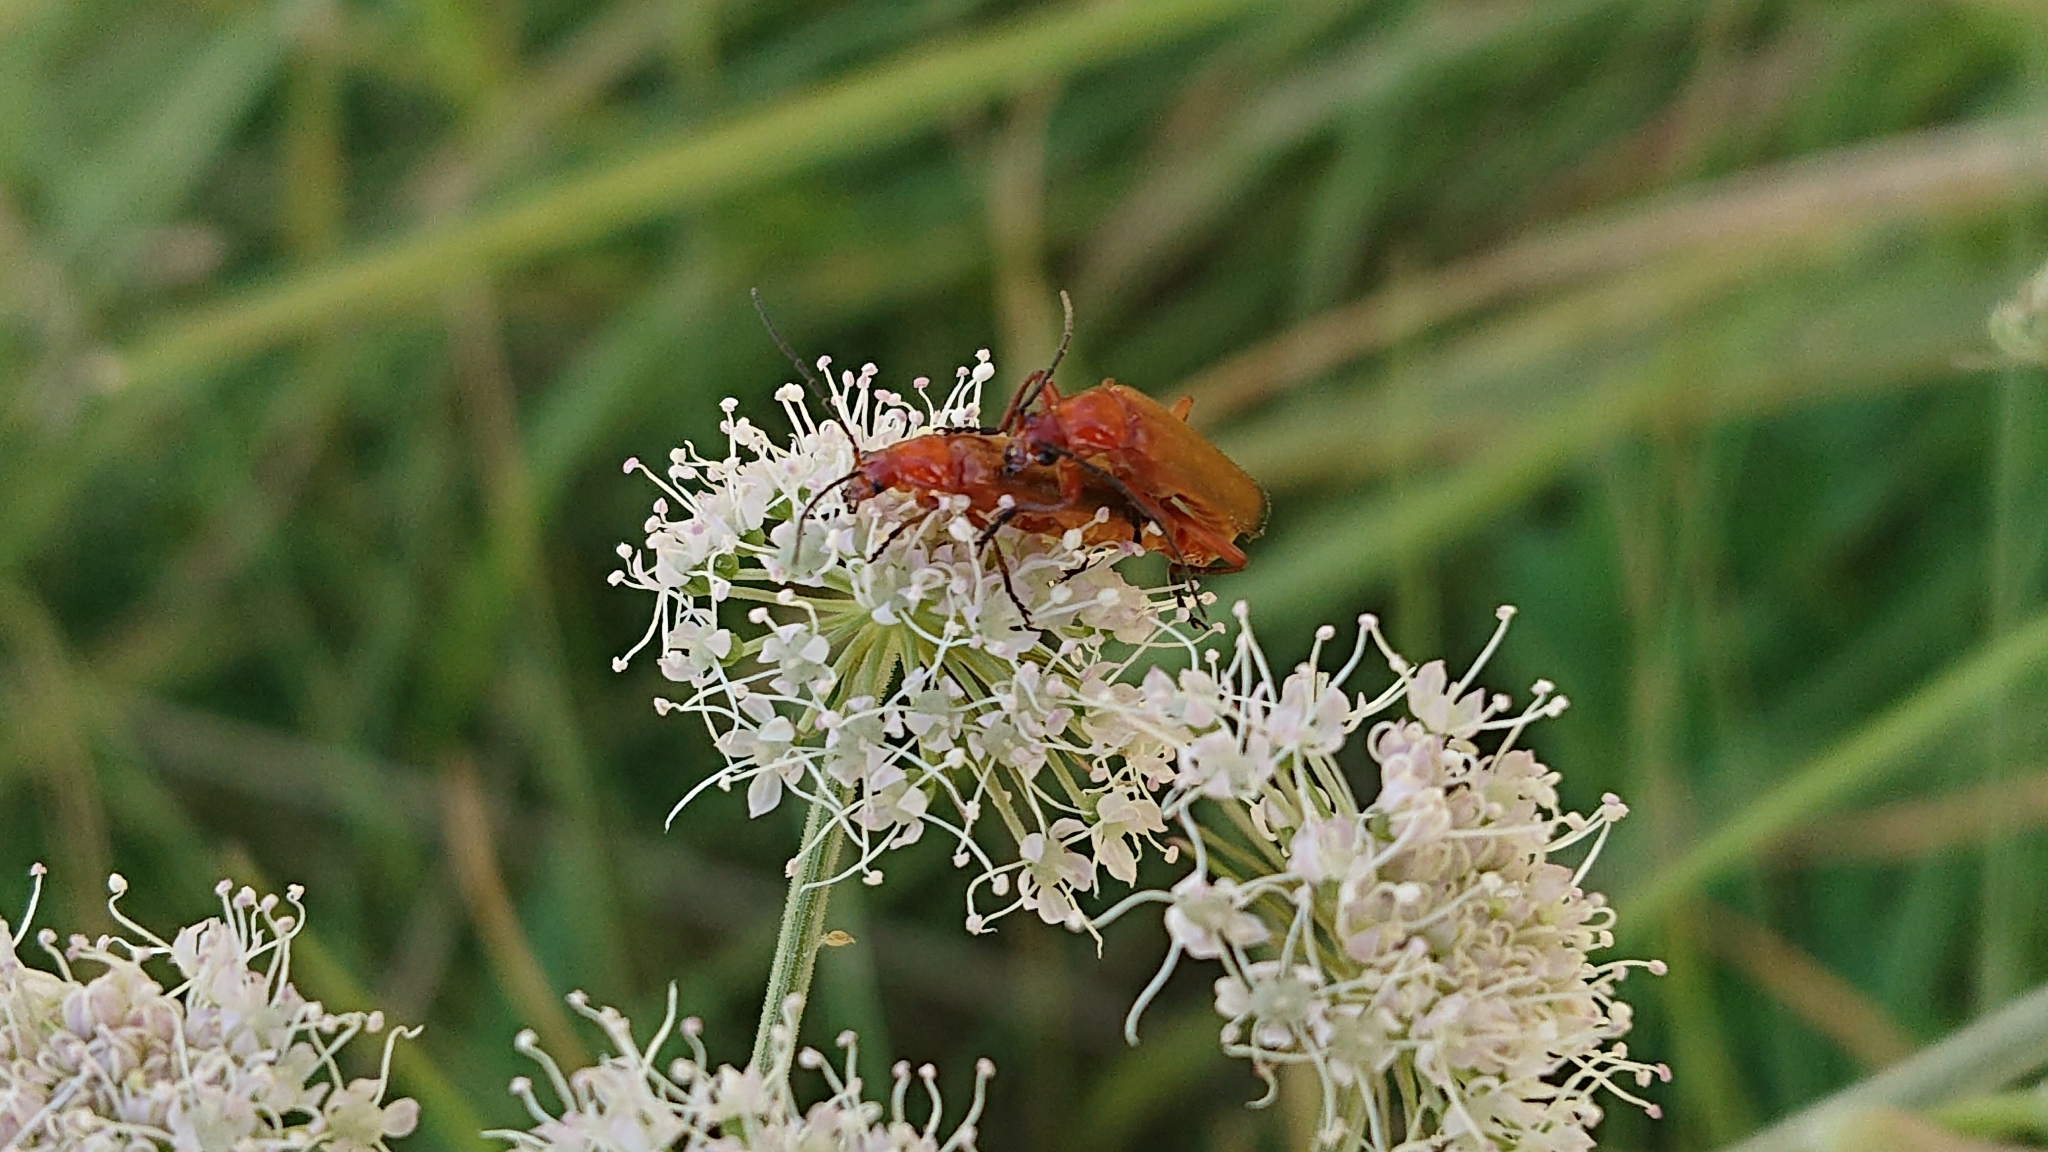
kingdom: Animalia
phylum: Arthropoda
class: Insecta
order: Coleoptera
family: Cantharidae
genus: Rhagonycha
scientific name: Rhagonycha fulva
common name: Common red soldier beetle
